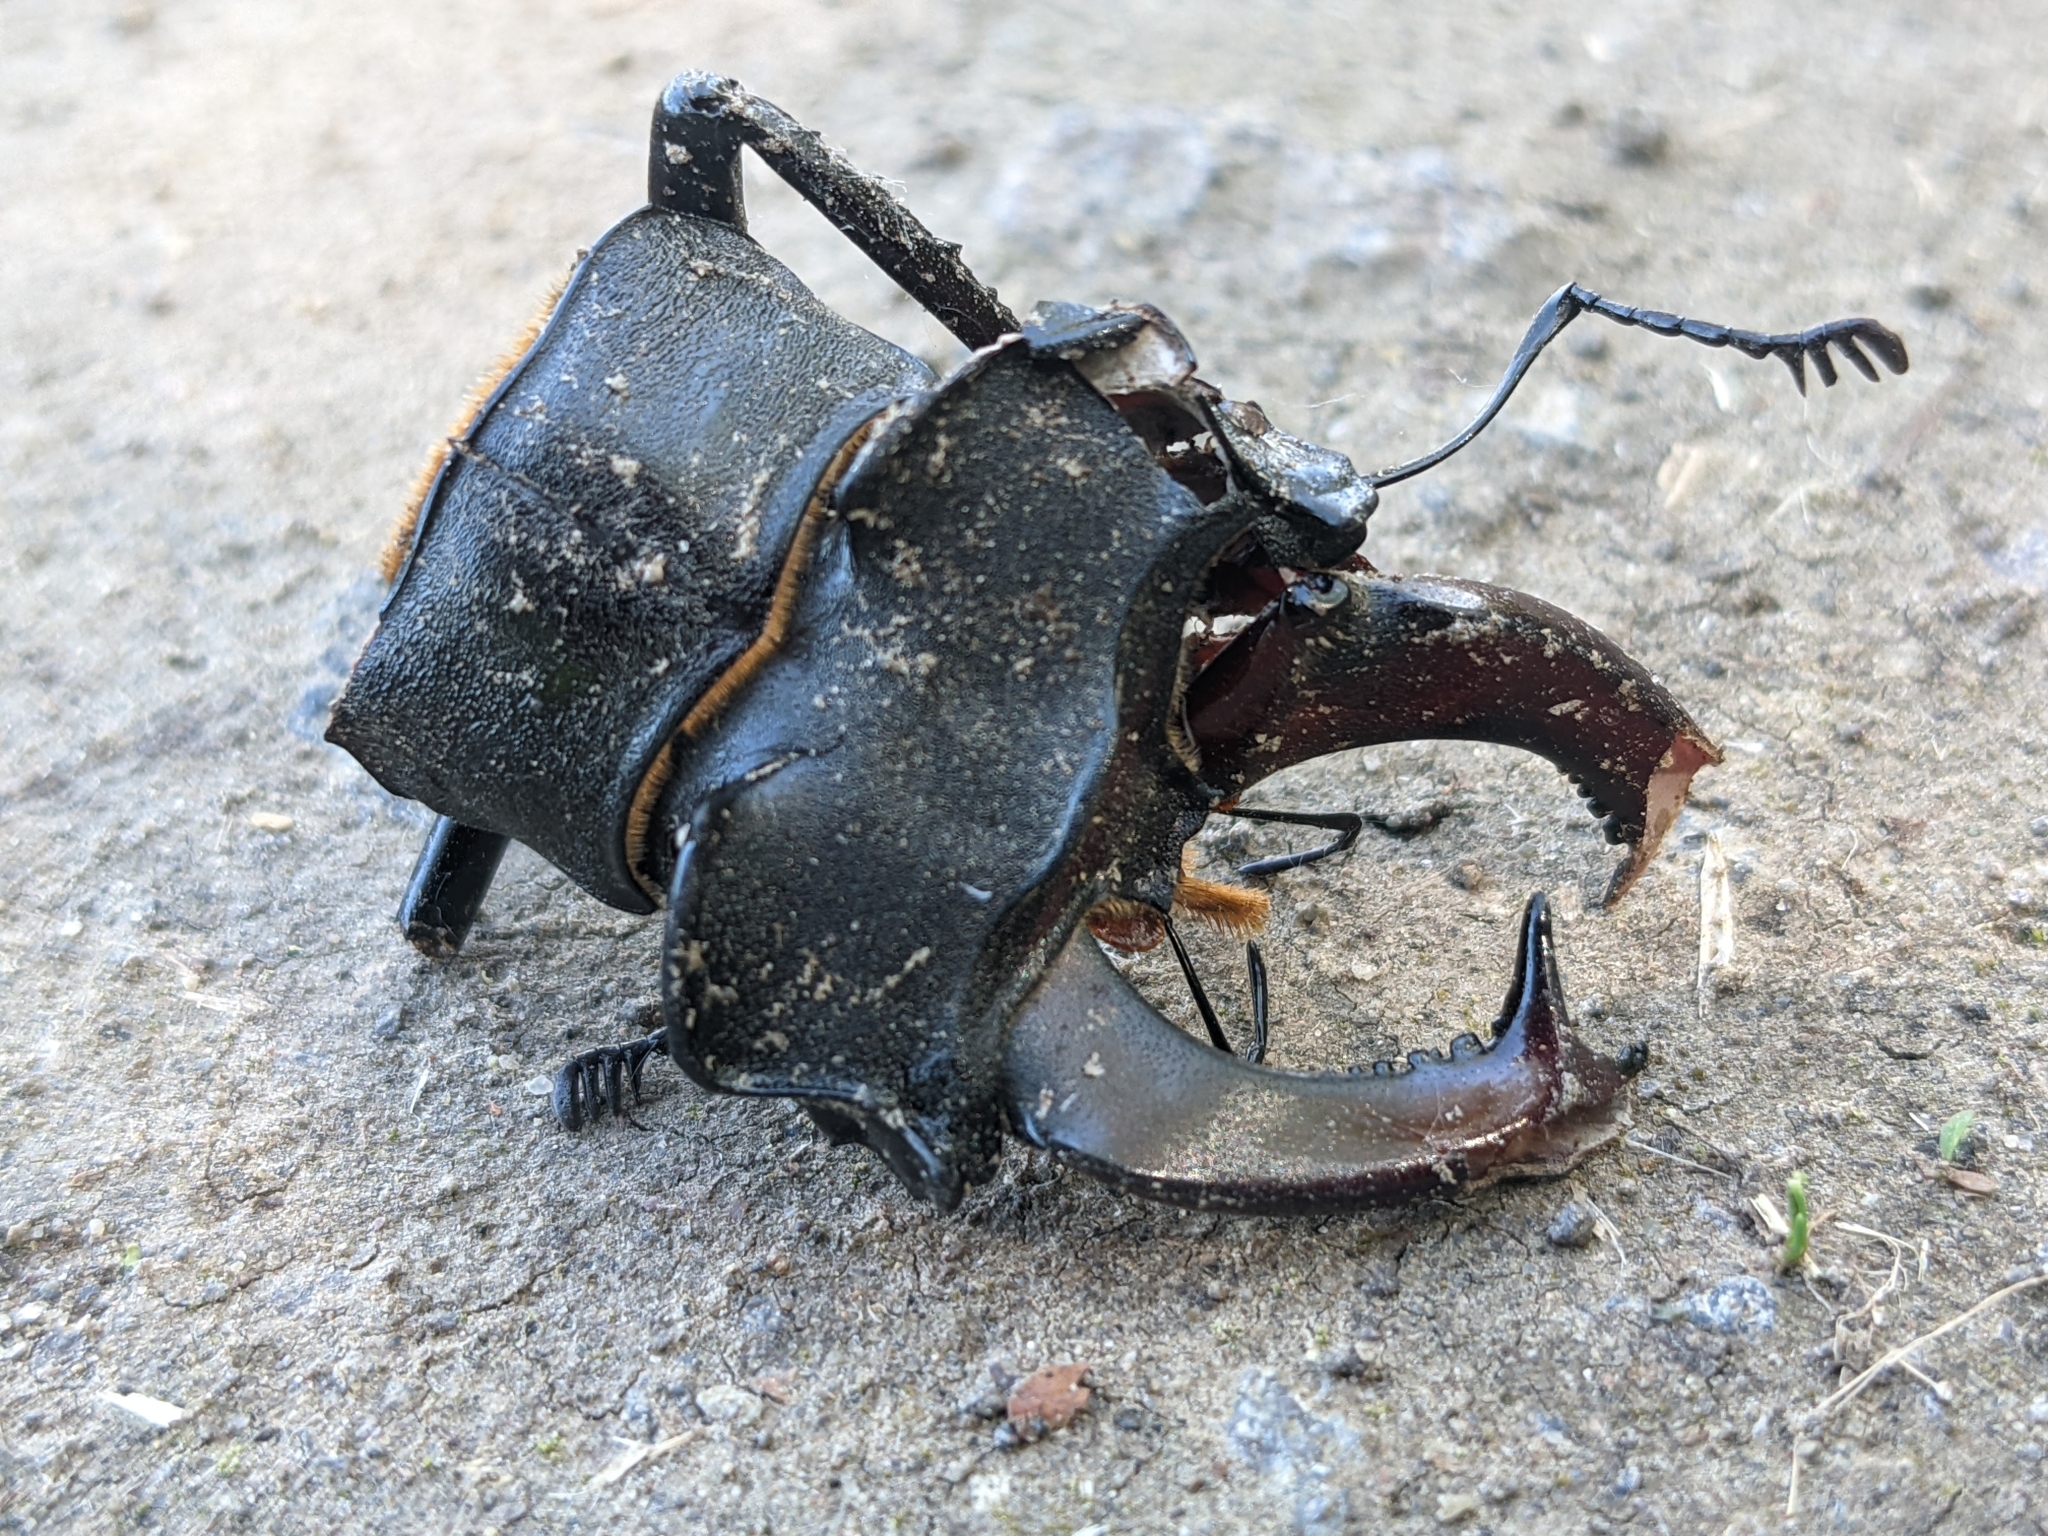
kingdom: Animalia
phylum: Arthropoda
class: Insecta
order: Coleoptera
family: Lucanidae
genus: Lucanus
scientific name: Lucanus cervus
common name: Stag beetle
